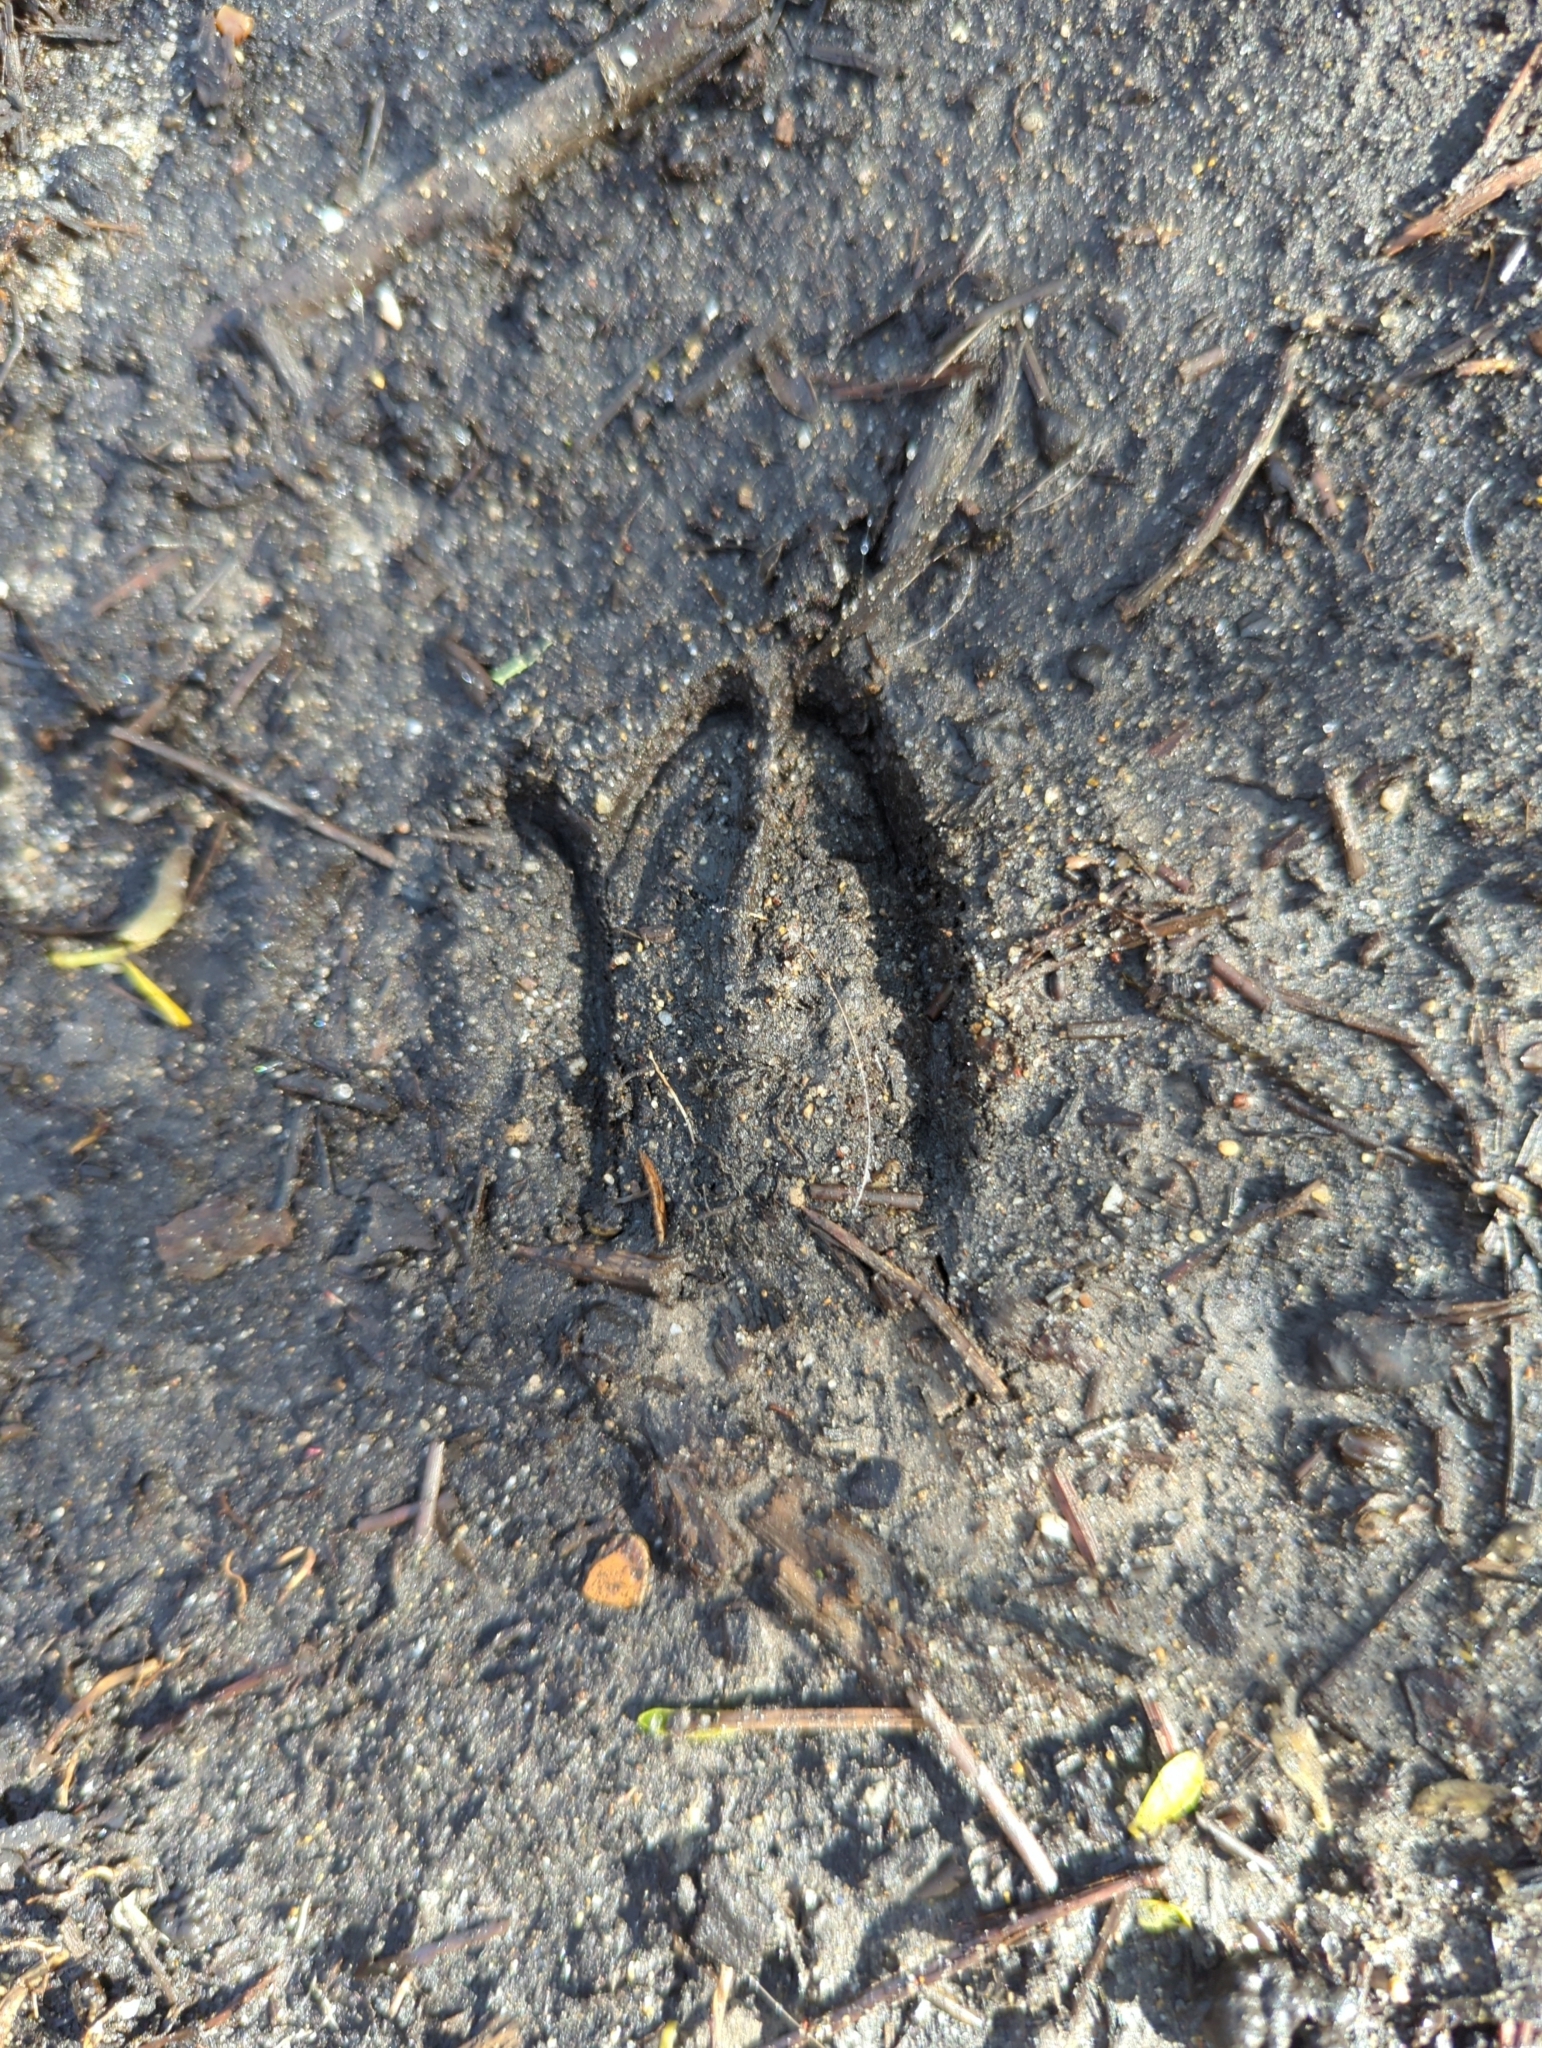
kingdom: Animalia
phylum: Chordata
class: Mammalia
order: Artiodactyla
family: Cervidae
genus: Odocoileus
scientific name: Odocoileus hemionus
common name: Mule deer
